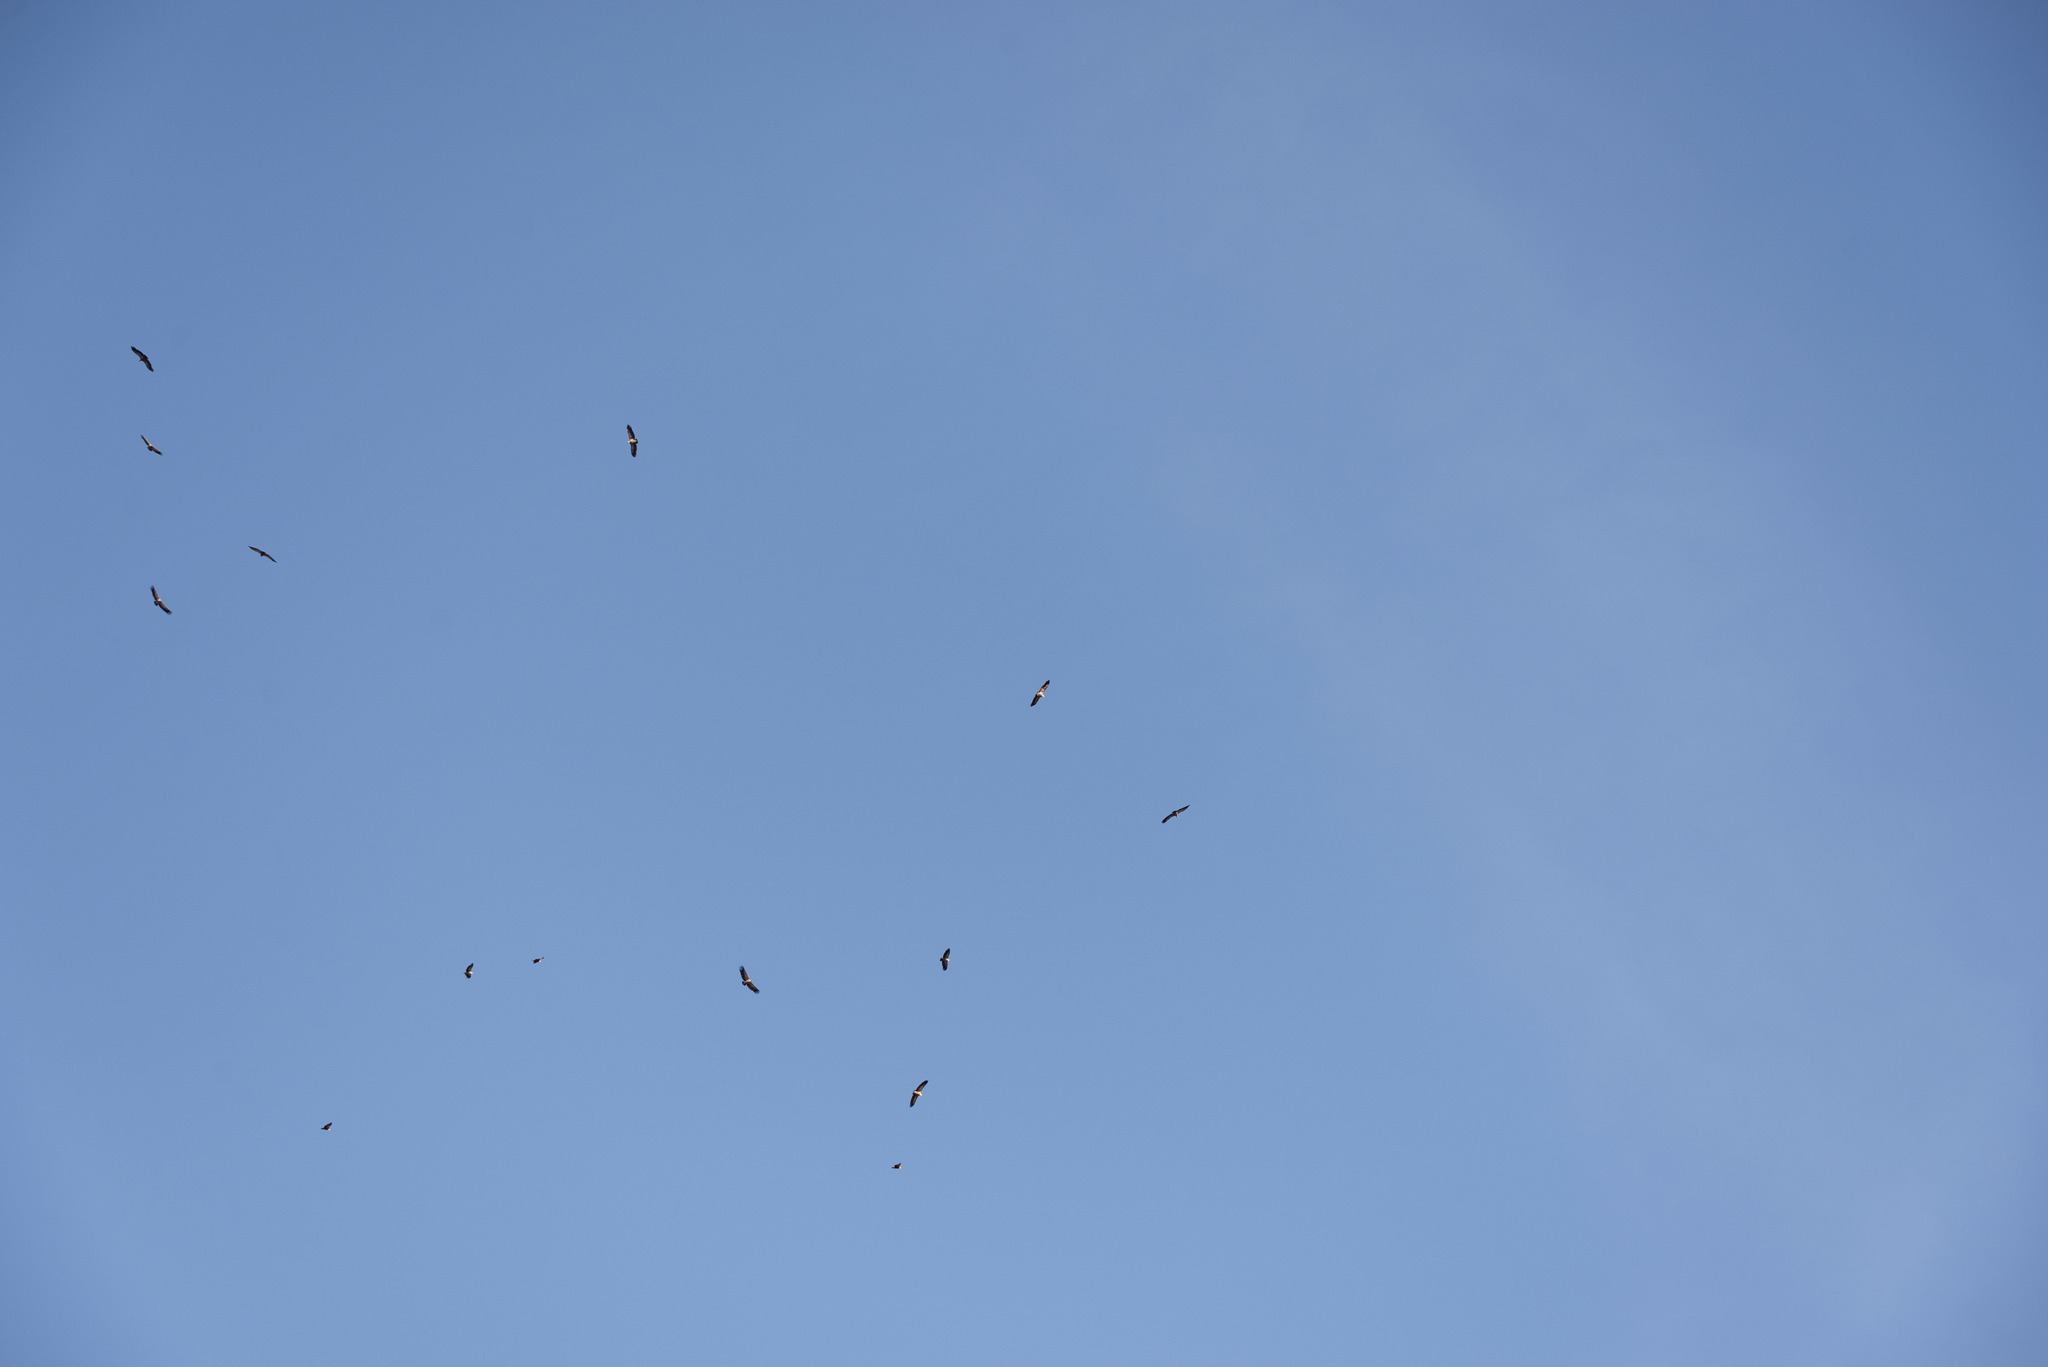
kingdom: Animalia
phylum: Chordata
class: Aves
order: Accipitriformes
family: Accipitridae
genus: Gyps
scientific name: Gyps fulvus
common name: Griffon vulture
